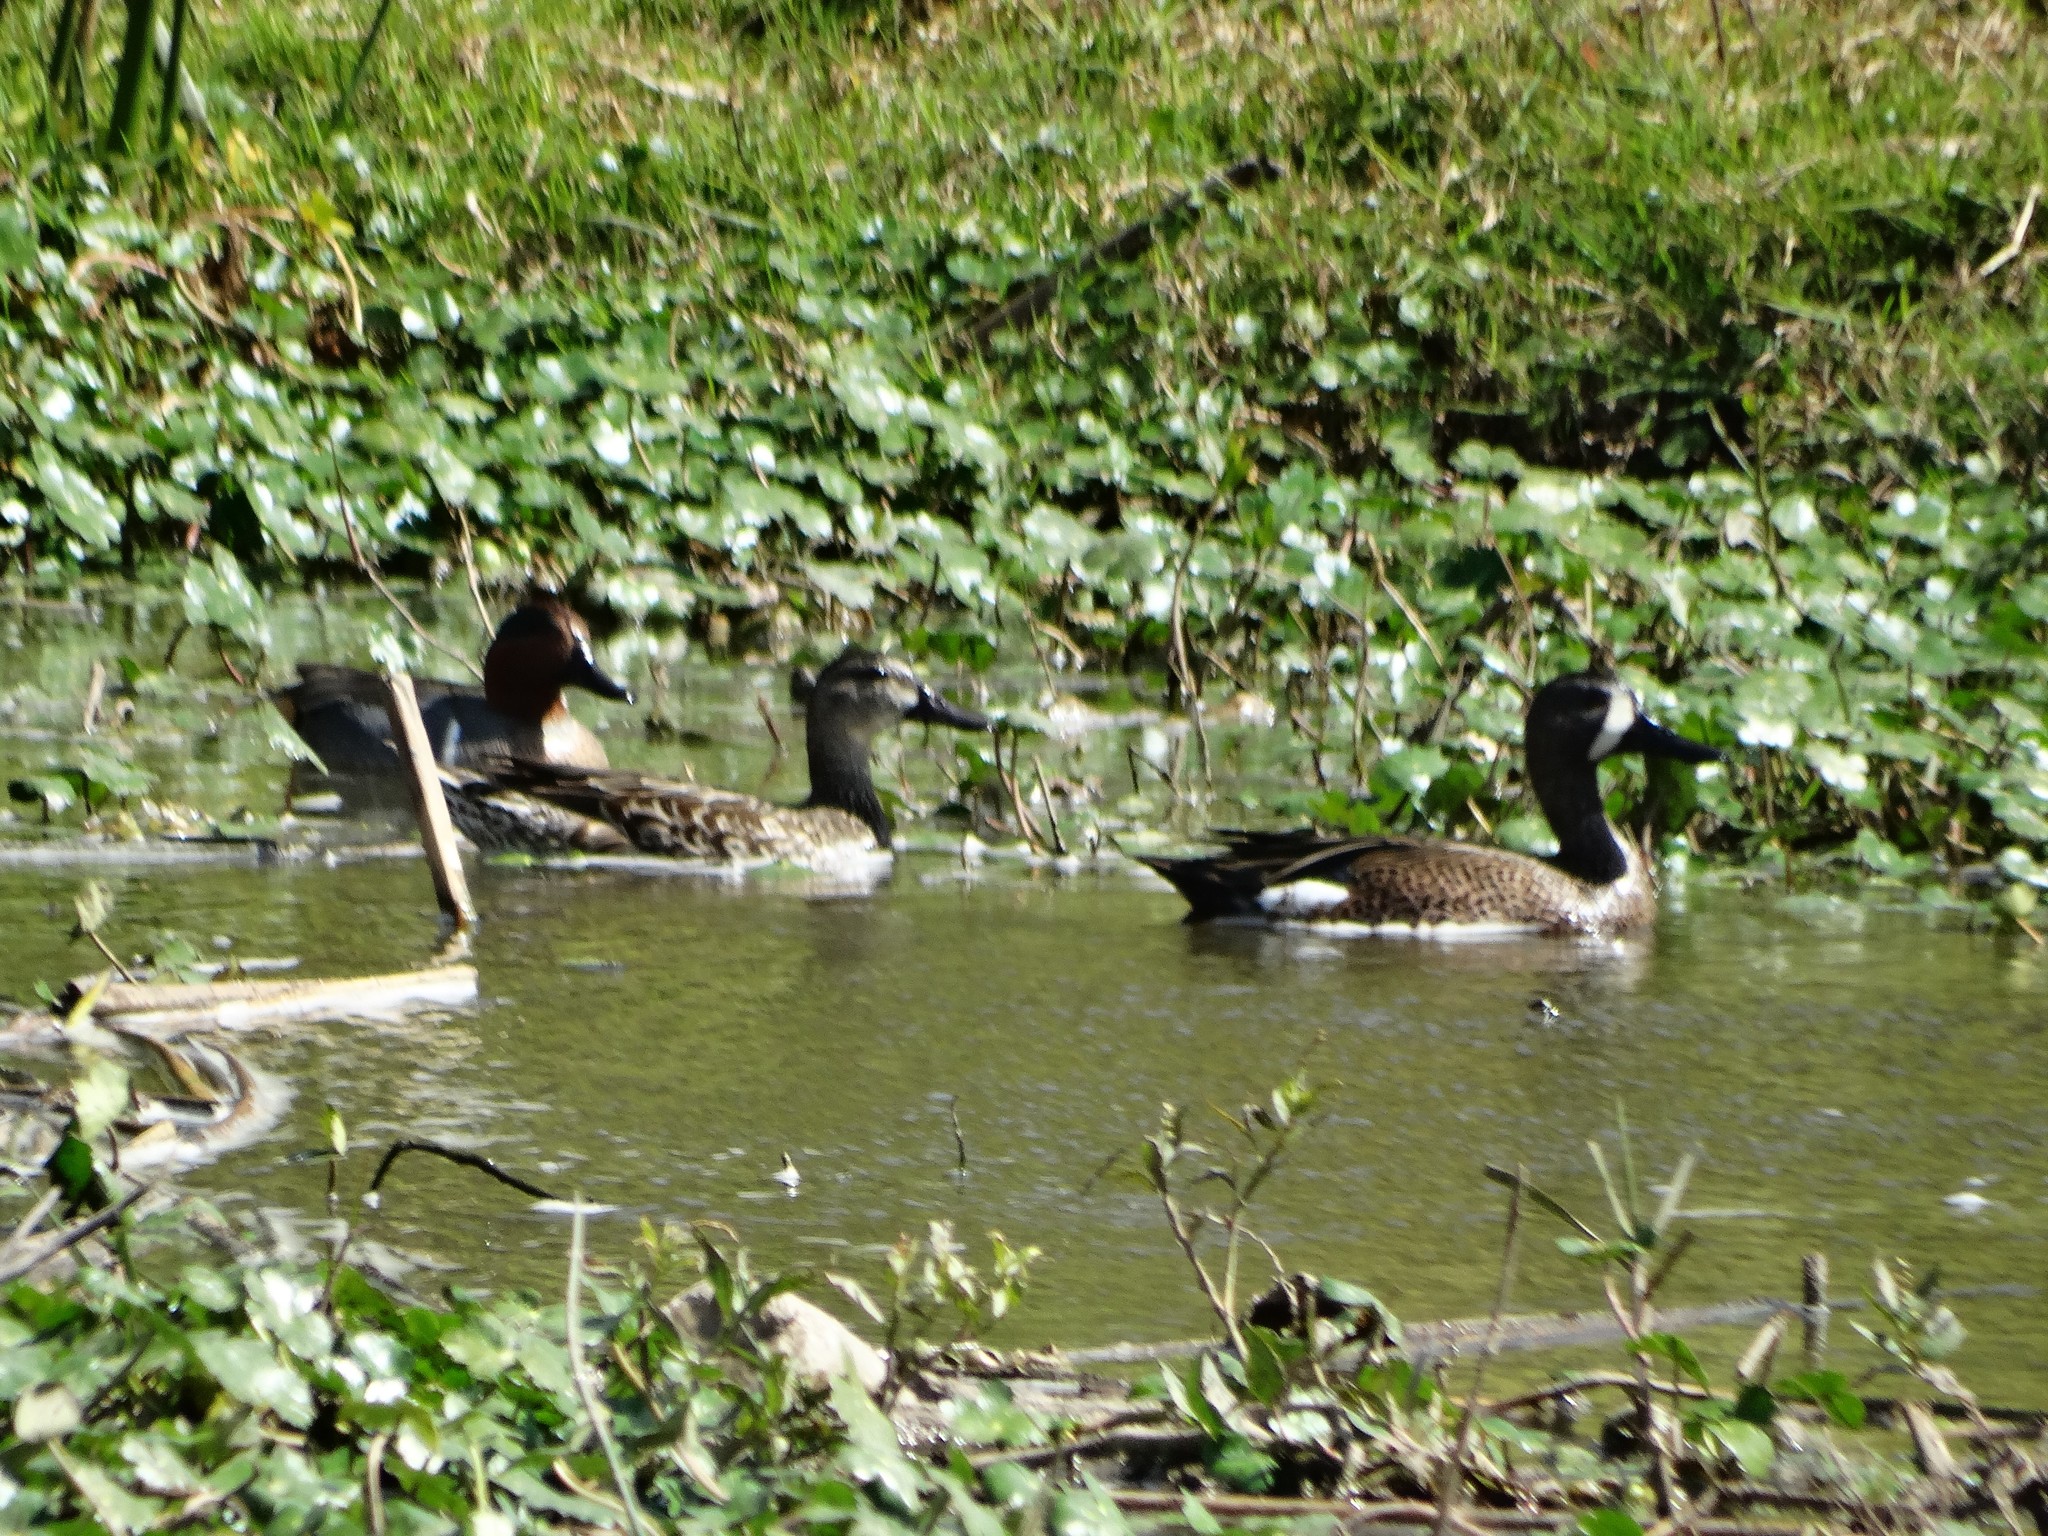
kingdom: Animalia
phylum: Chordata
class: Aves
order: Anseriformes
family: Anatidae
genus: Spatula
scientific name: Spatula discors
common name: Blue-winged teal
